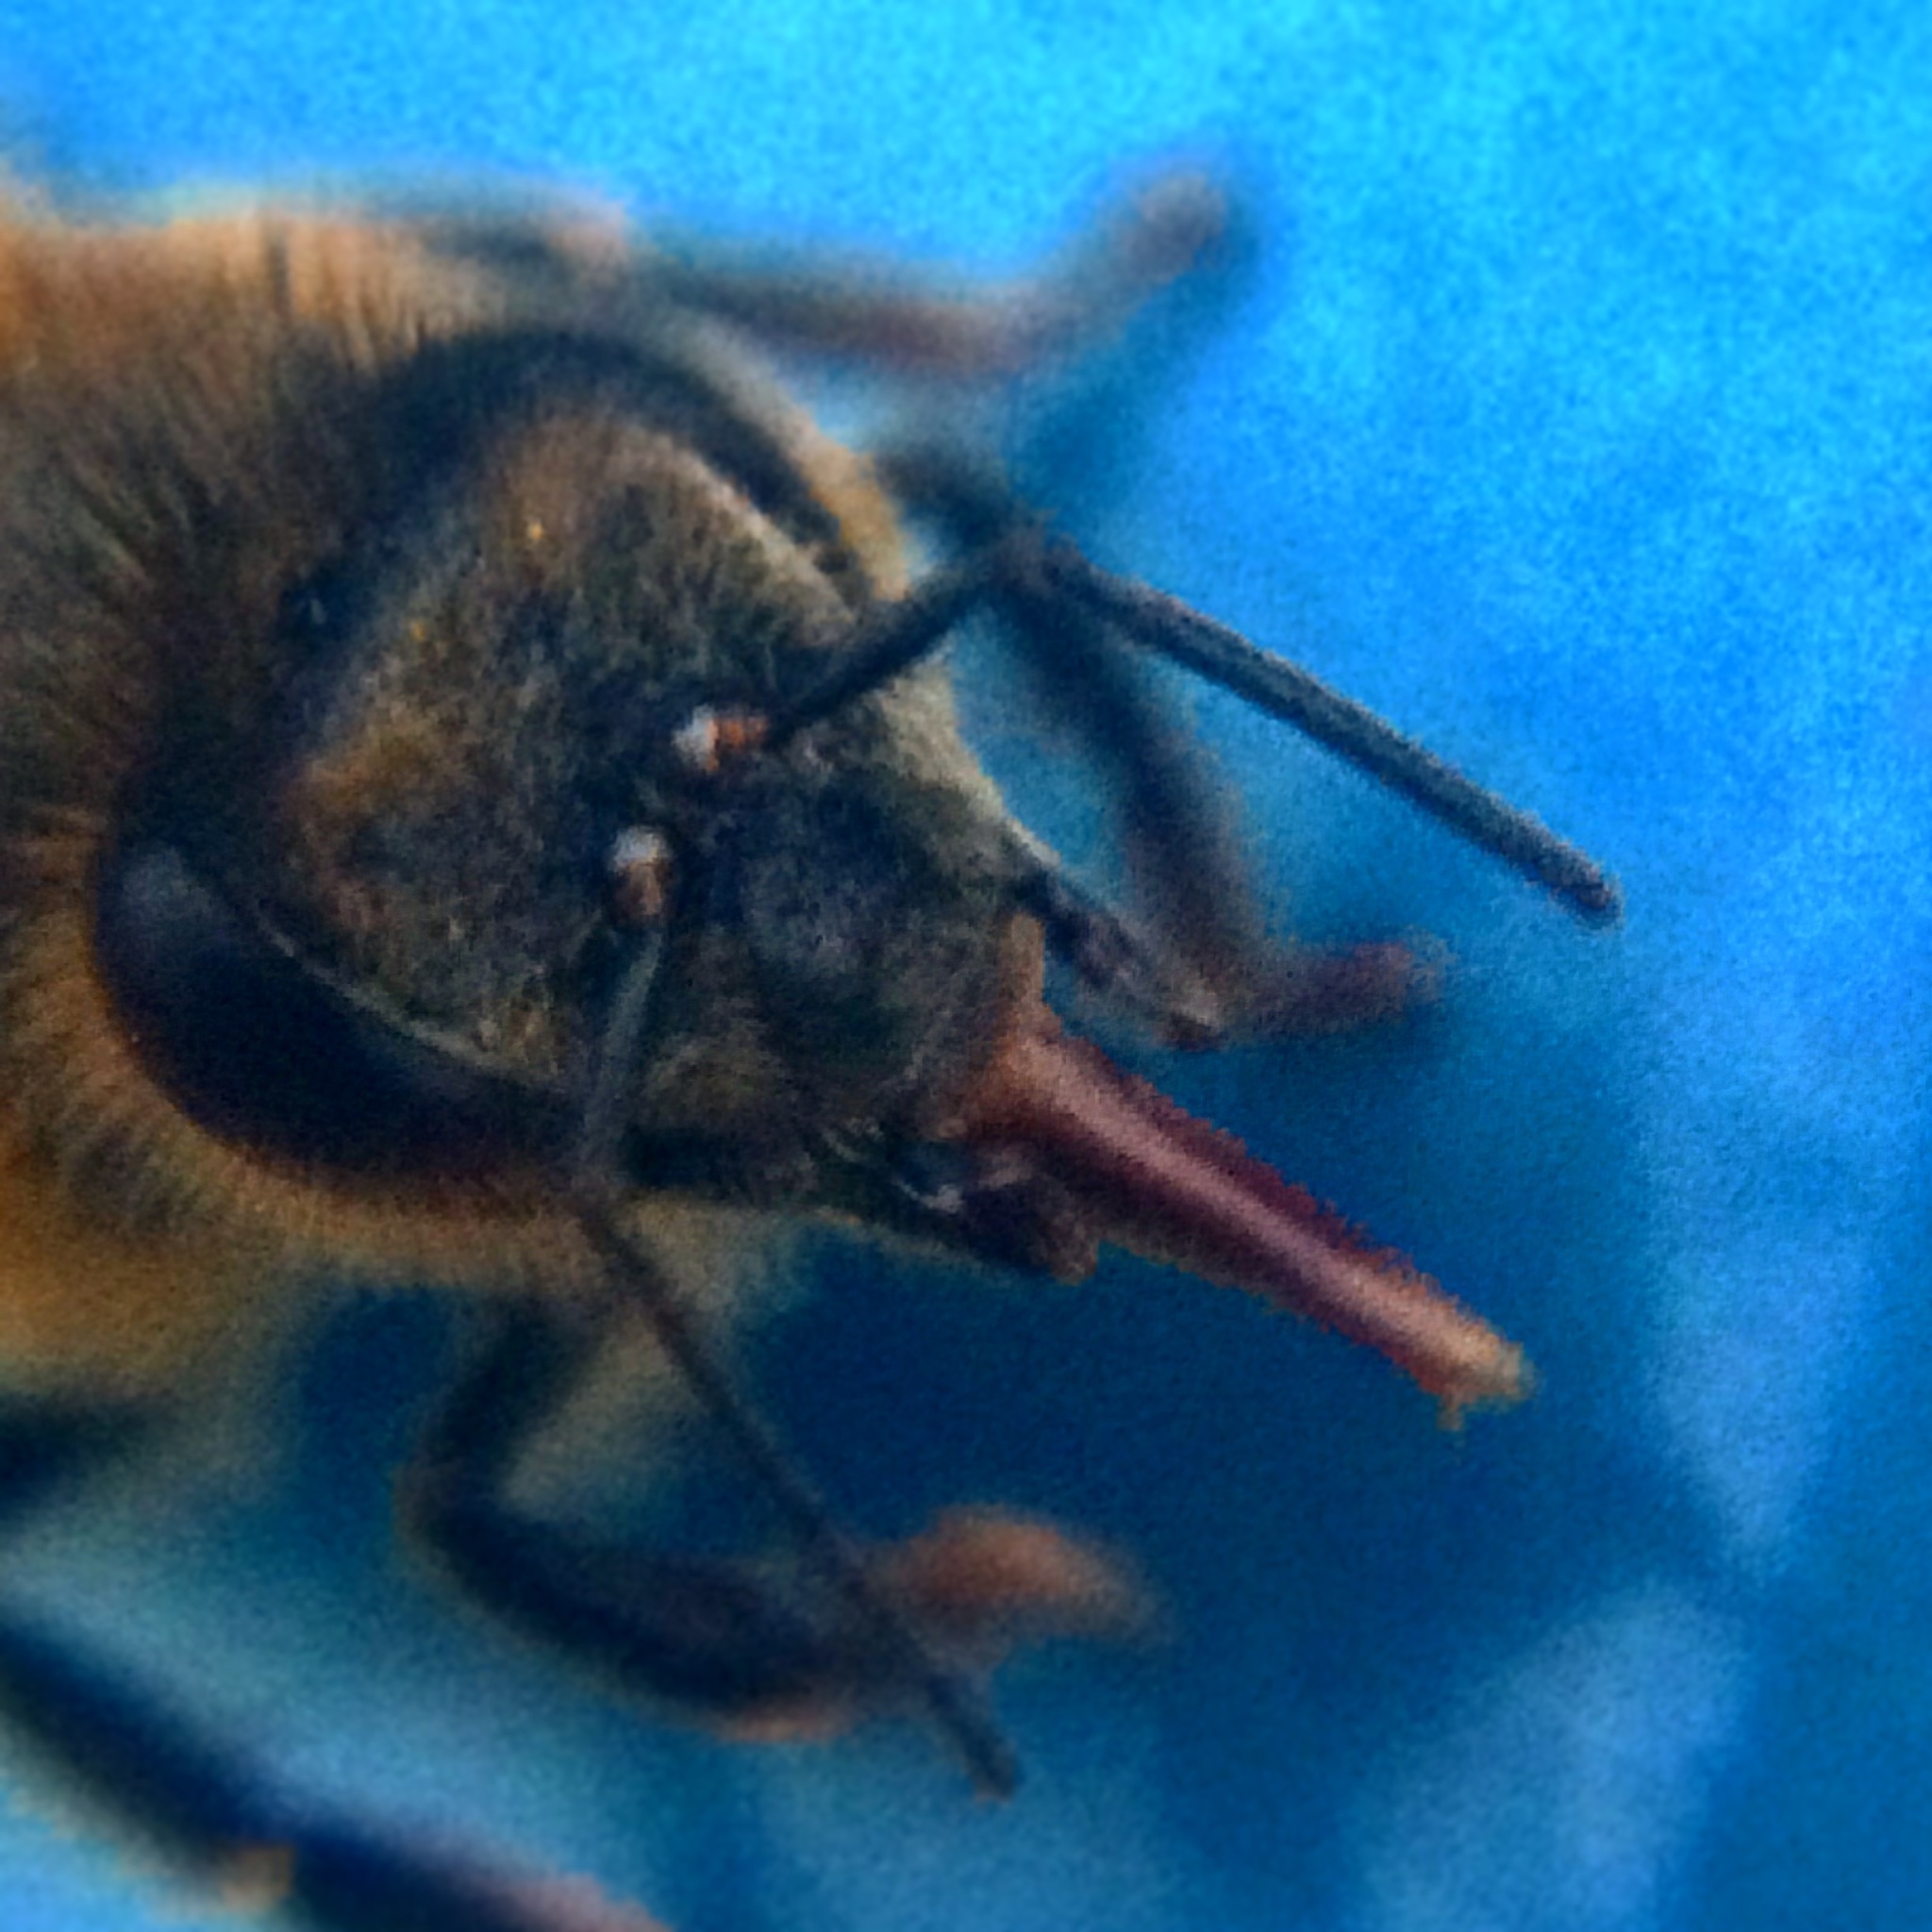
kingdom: Animalia
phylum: Arthropoda
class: Insecta
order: Hymenoptera
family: Apidae
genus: Apis
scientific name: Apis mellifera
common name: Honey bee
